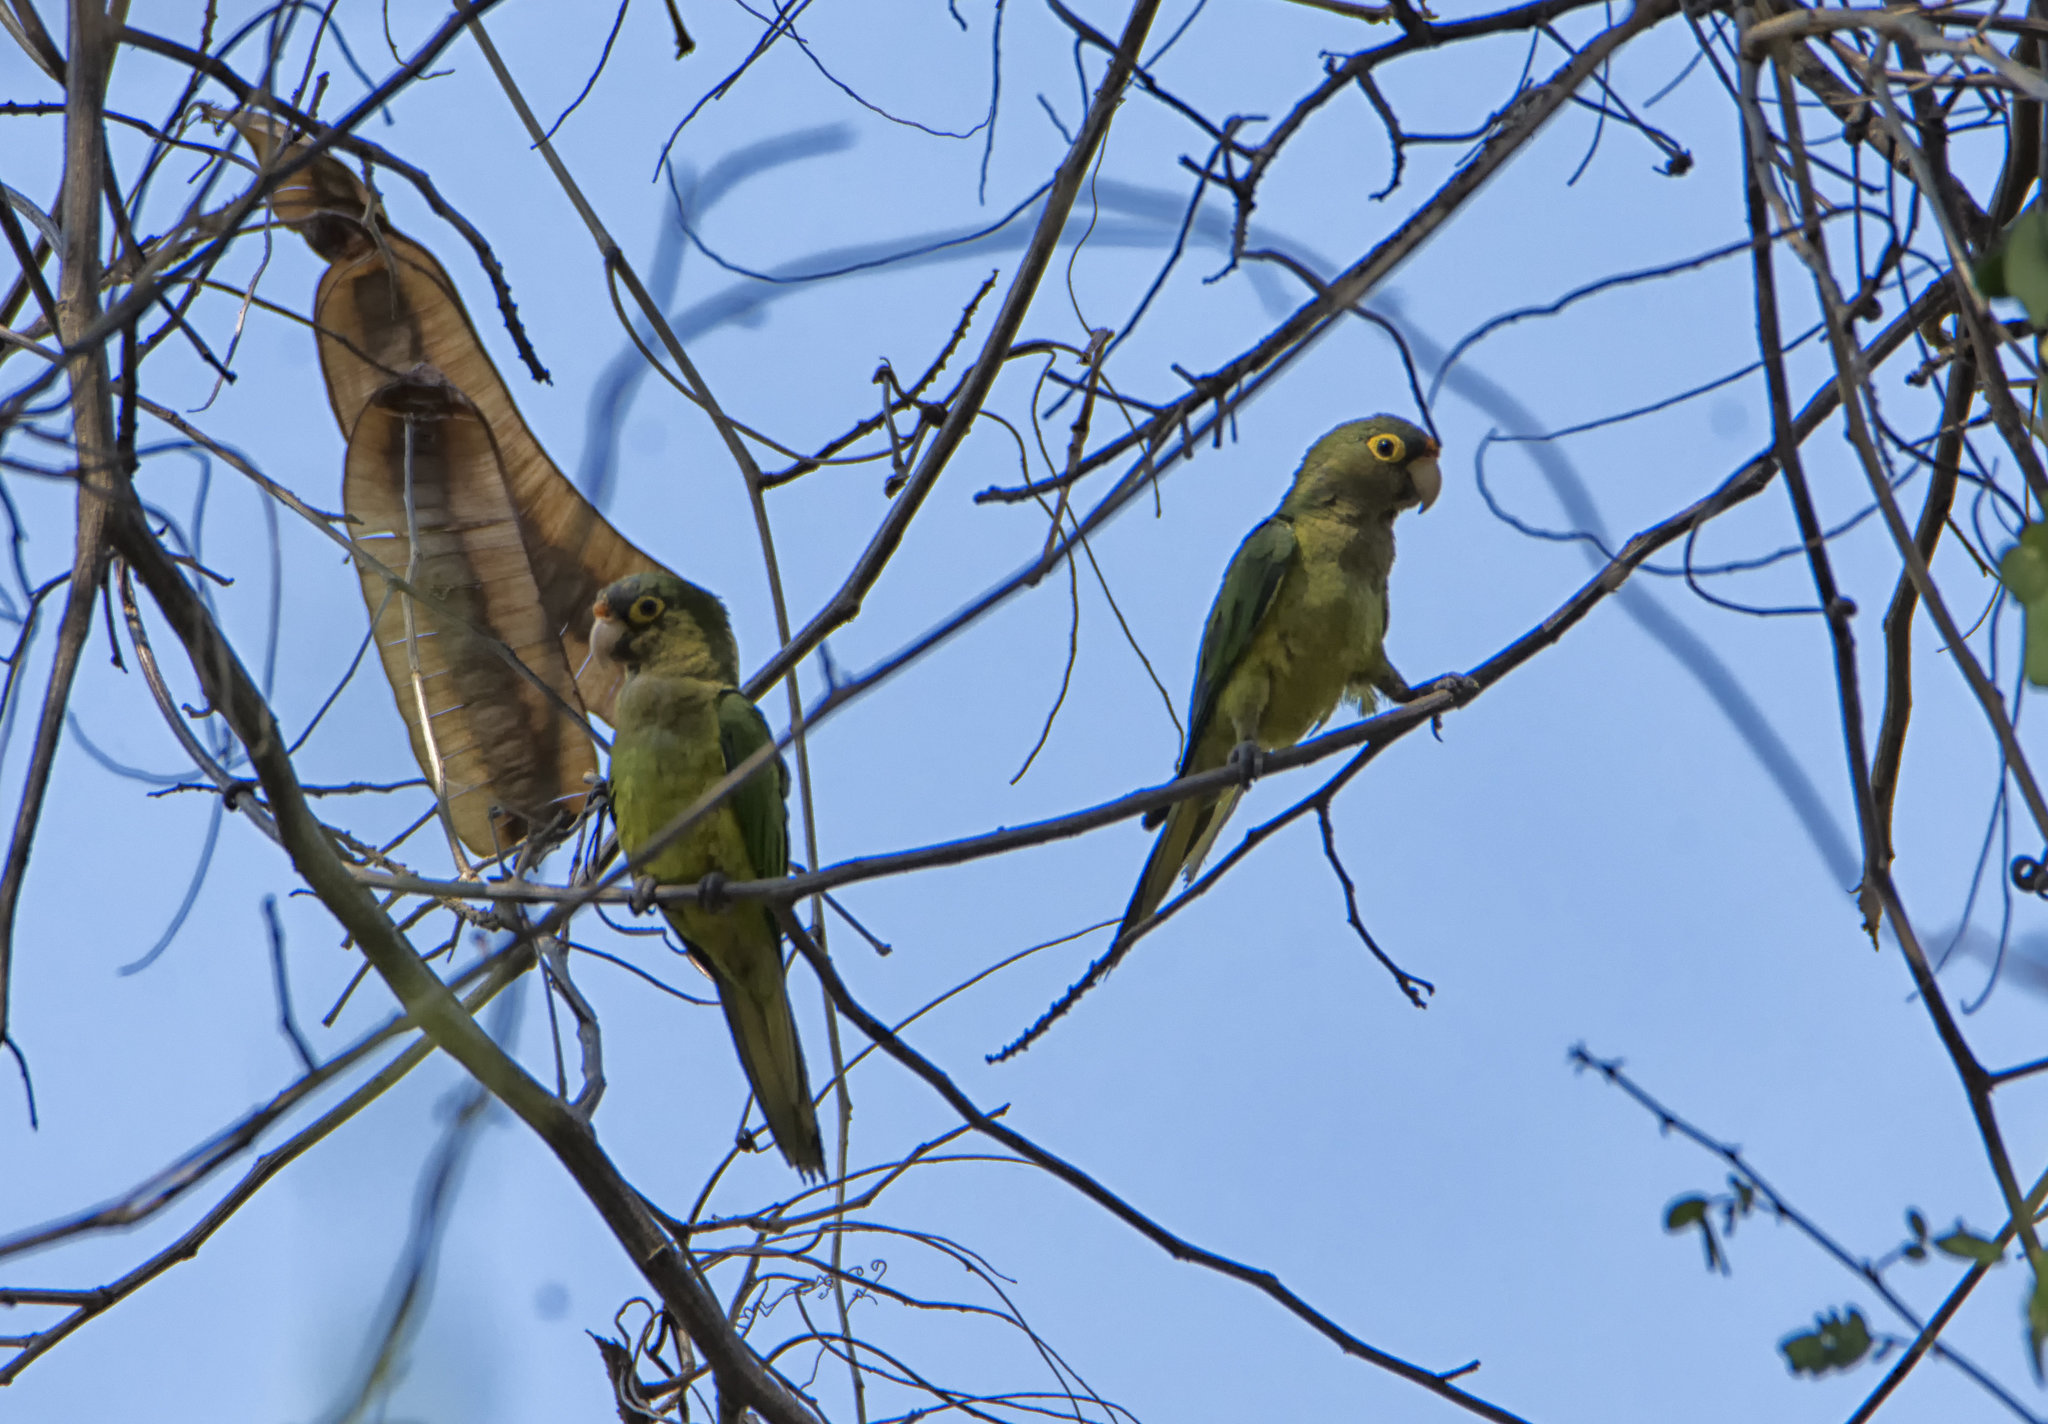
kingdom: Animalia
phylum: Chordata
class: Aves
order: Psittaciformes
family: Psittacidae
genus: Aratinga
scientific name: Aratinga canicularis
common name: Orange-fronted parakeet
